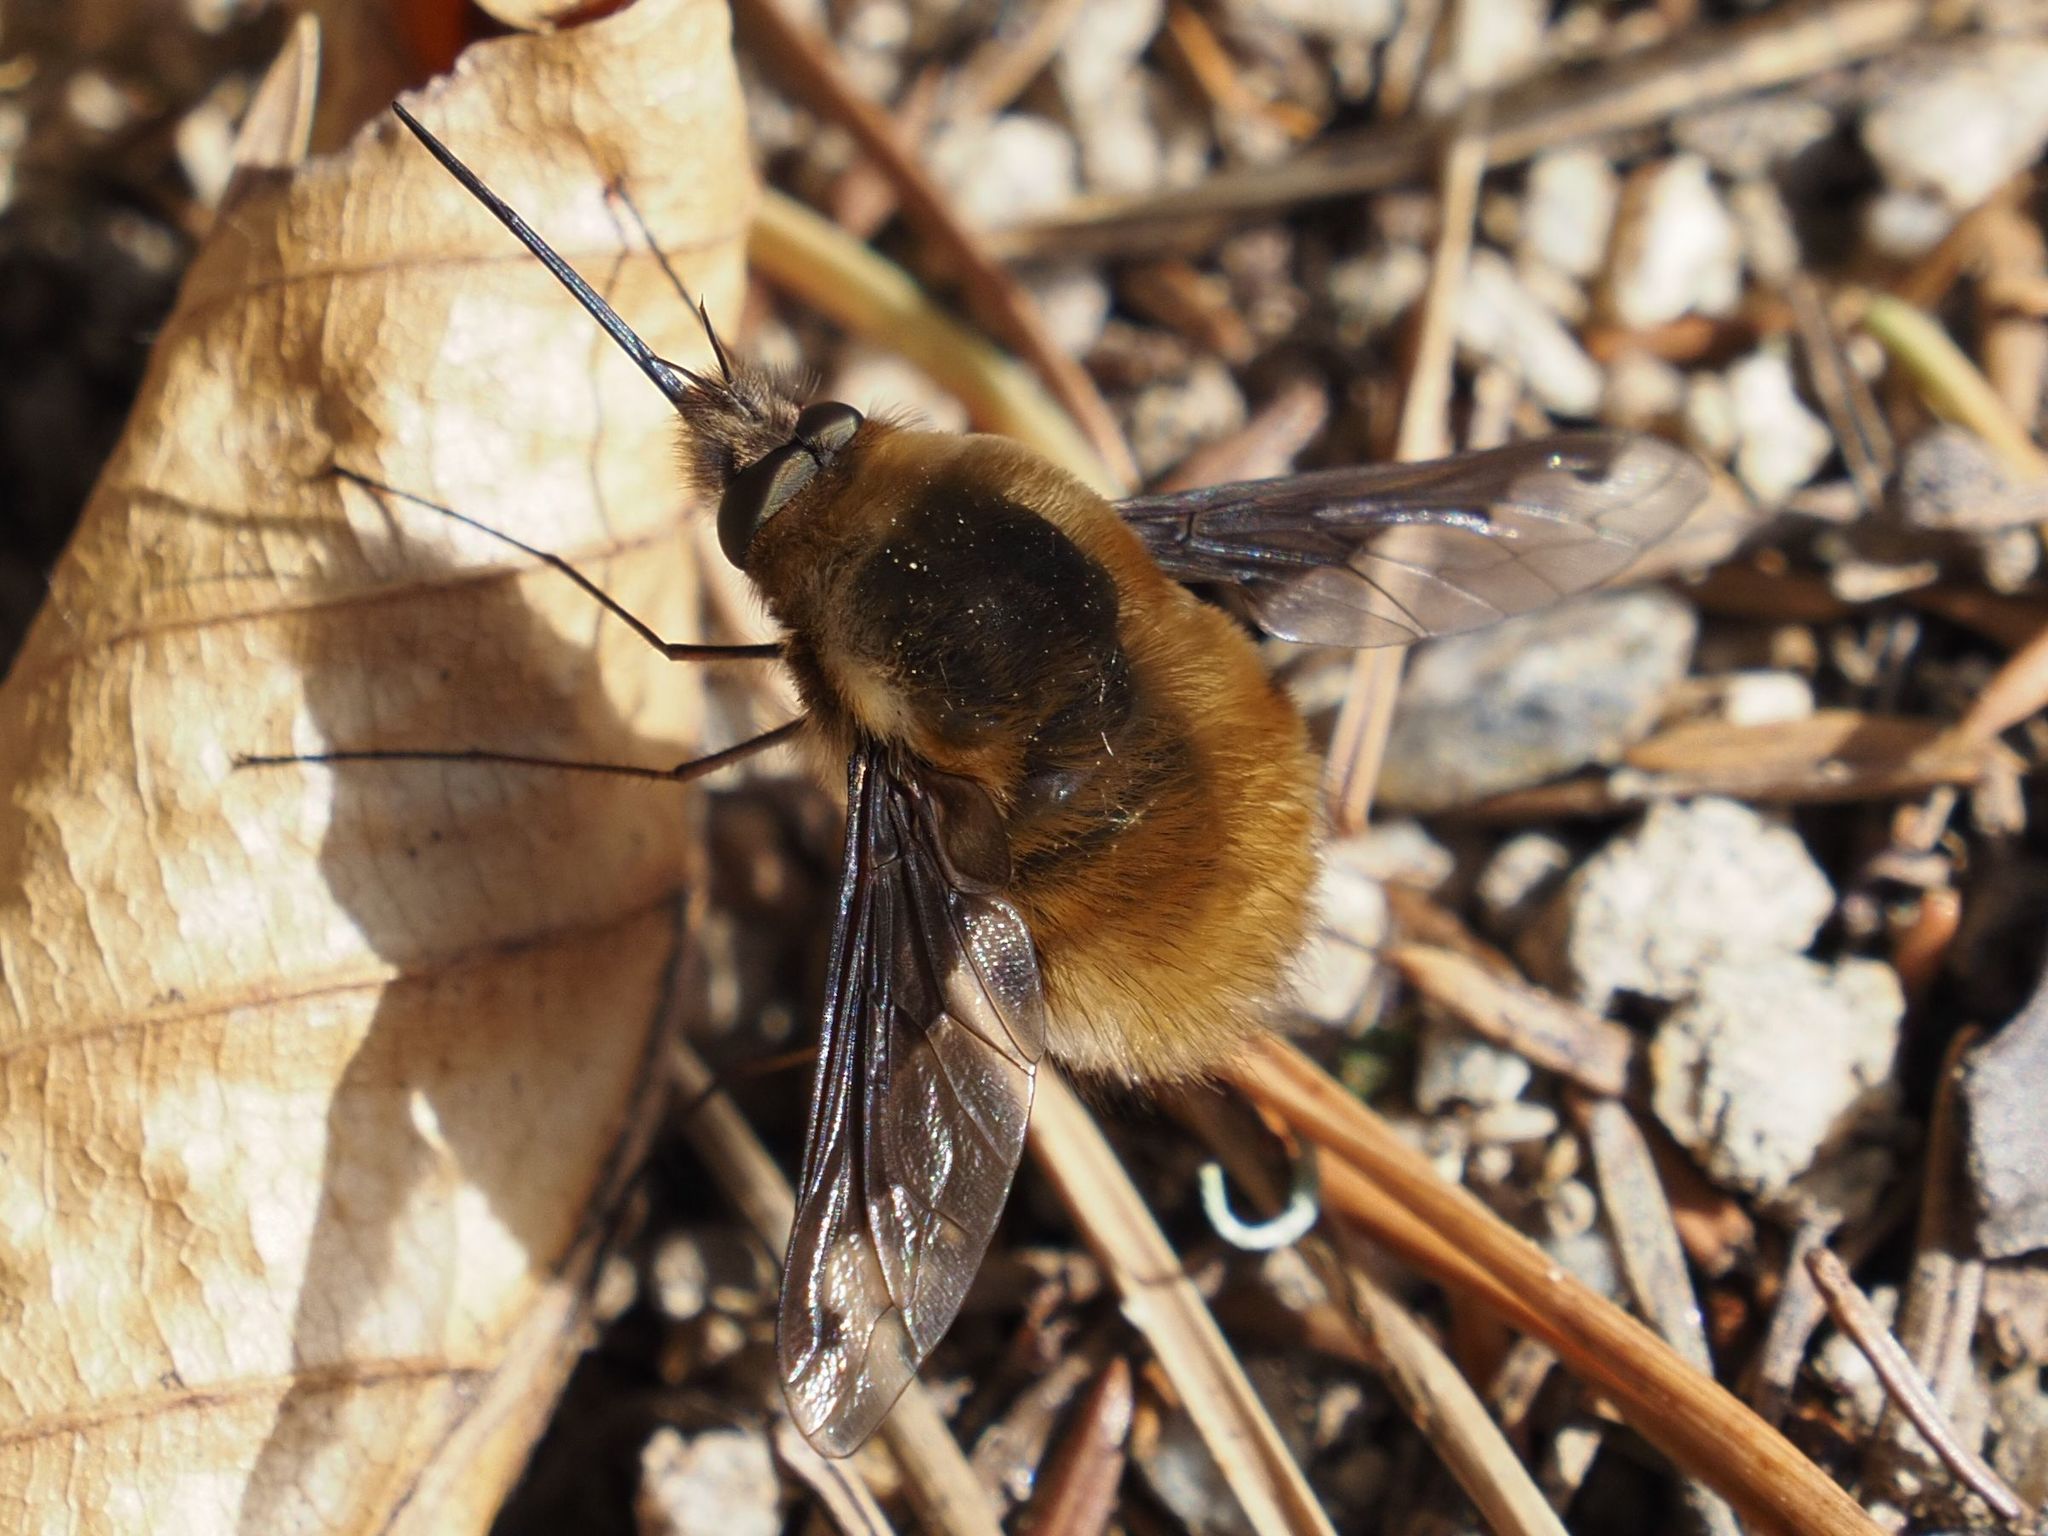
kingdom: Animalia
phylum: Arthropoda
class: Insecta
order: Diptera
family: Bombyliidae
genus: Bombylius
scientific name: Bombylius major
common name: Bee fly
